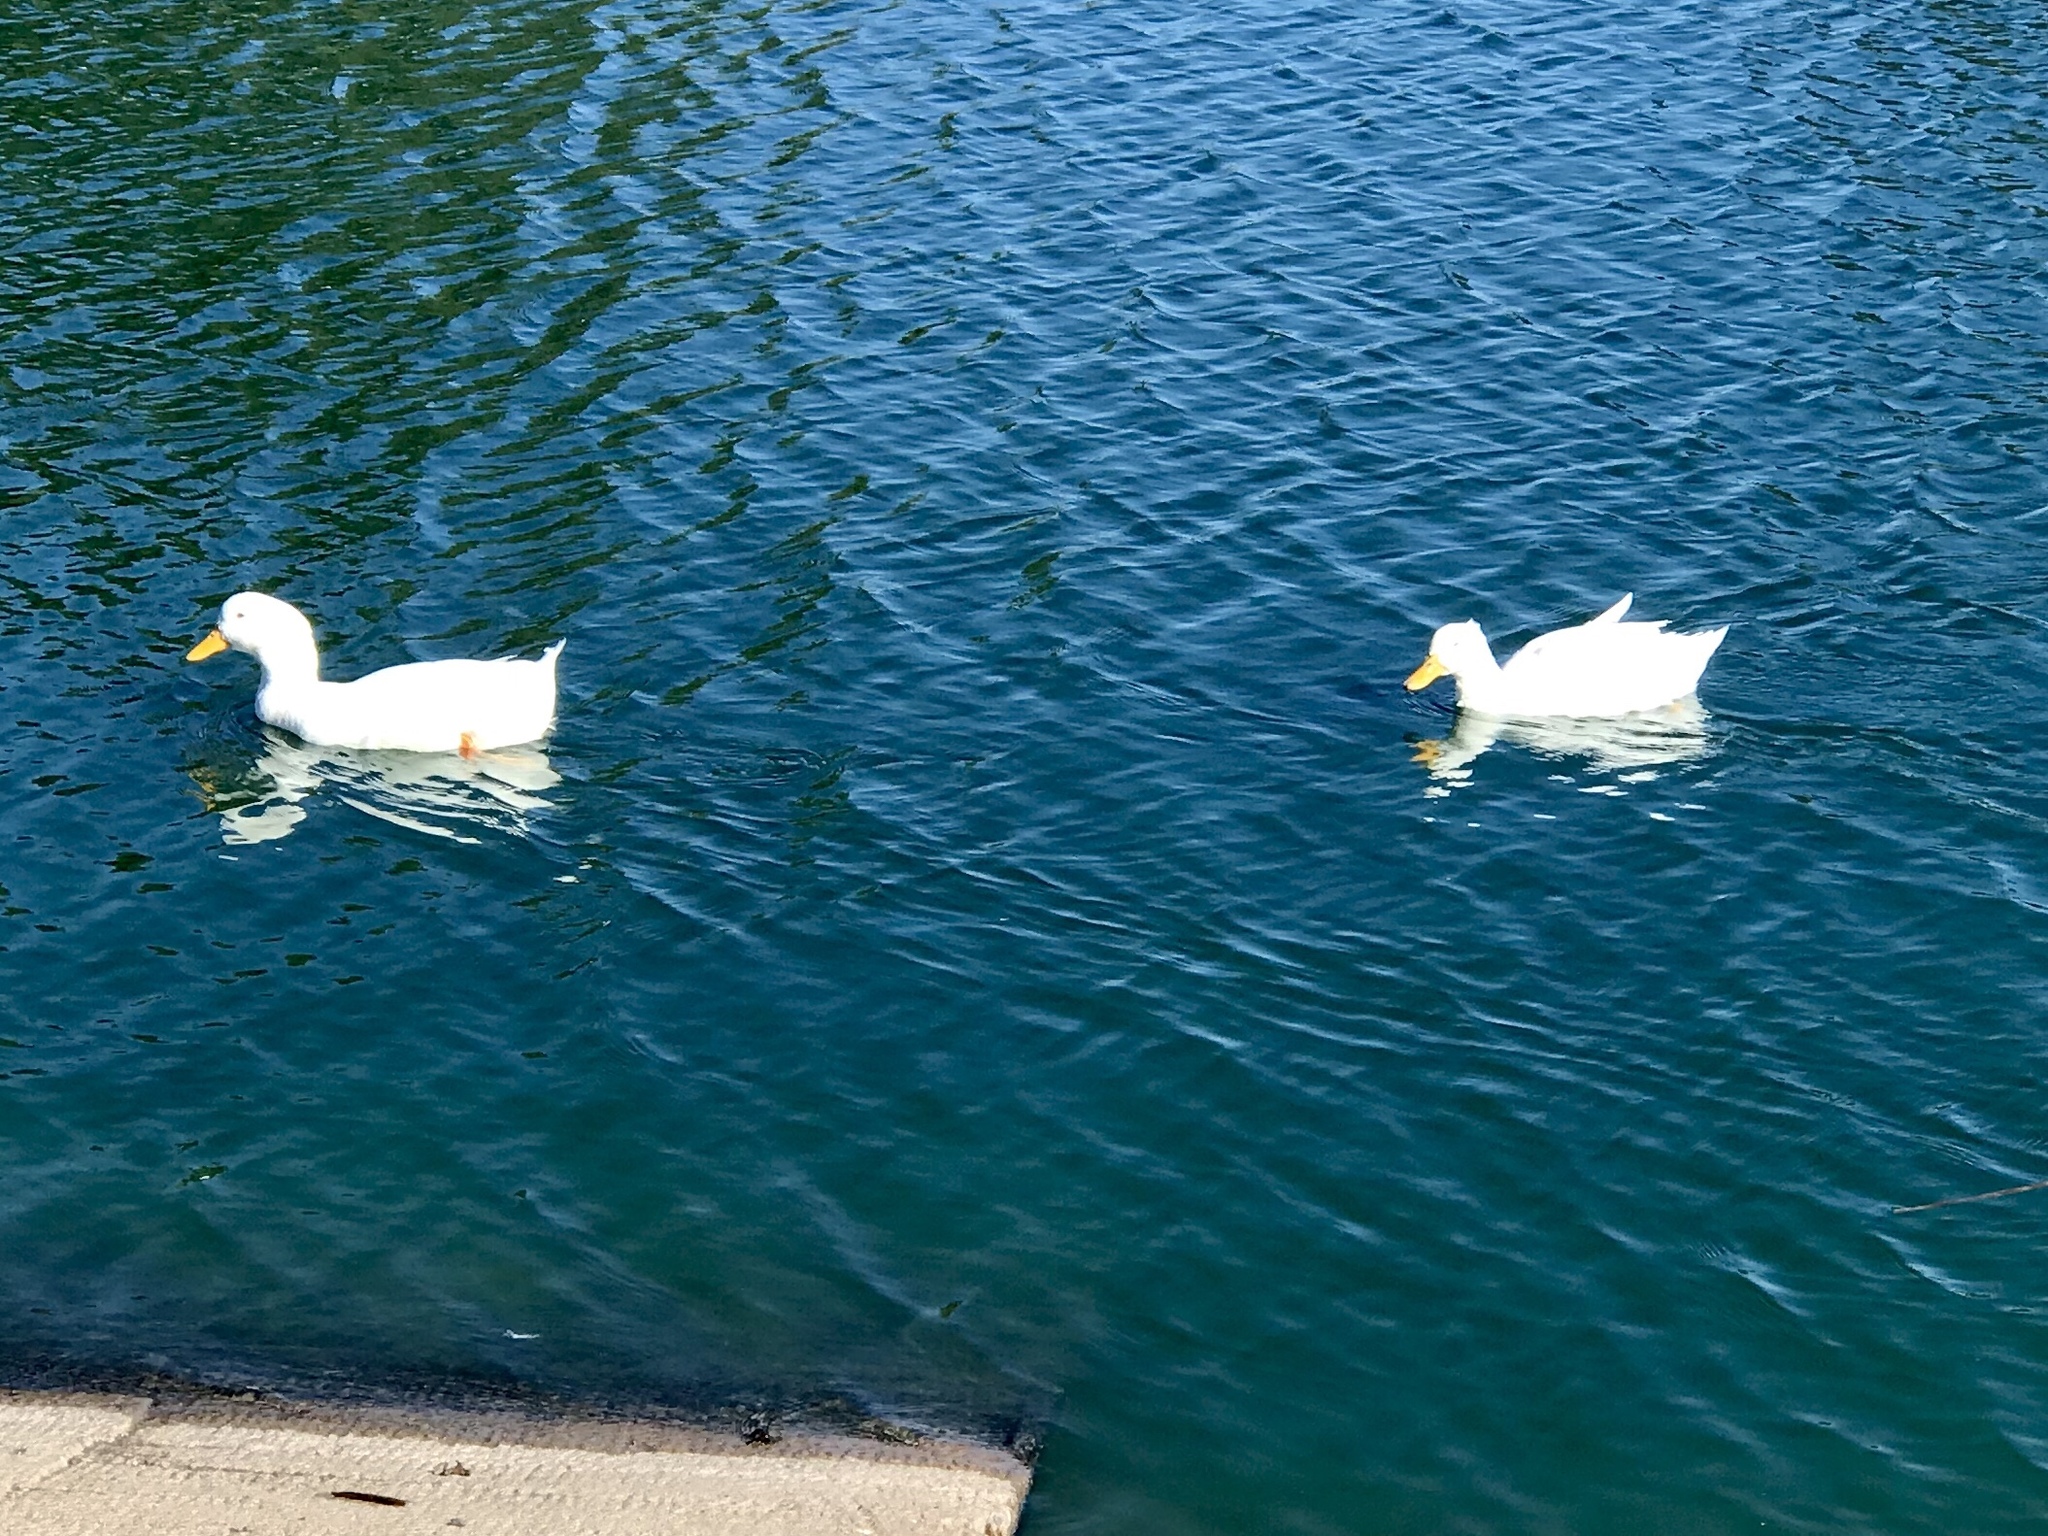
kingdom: Animalia
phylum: Chordata
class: Aves
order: Anseriformes
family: Anatidae
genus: Anas
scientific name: Anas platyrhynchos
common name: Mallard
